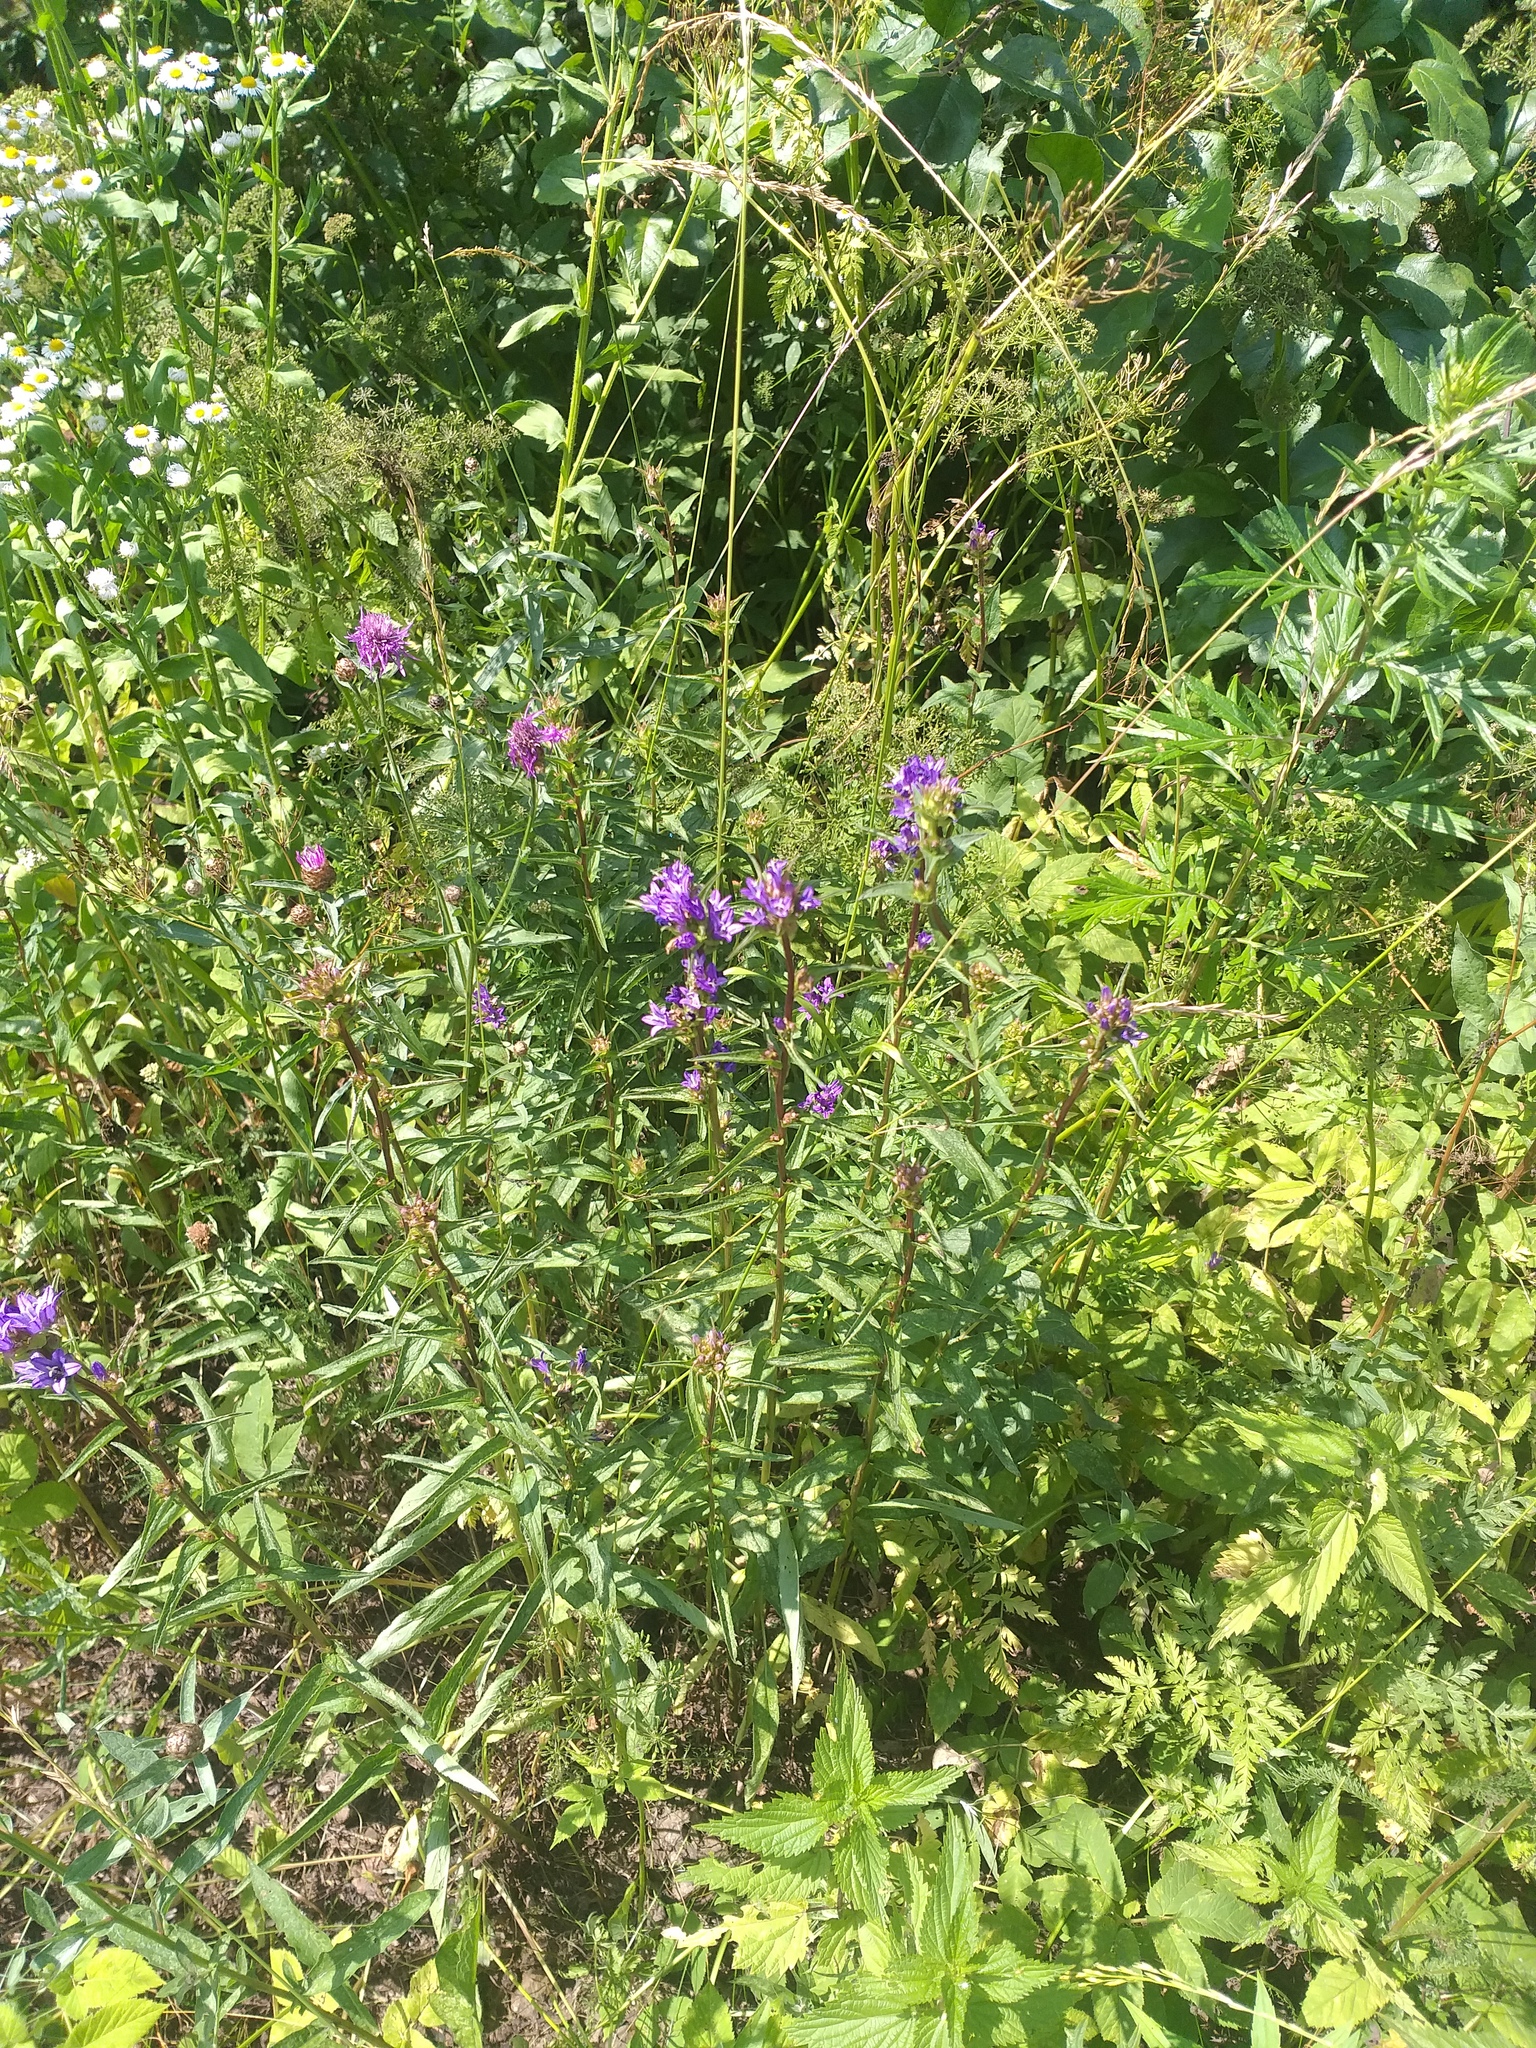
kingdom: Plantae
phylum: Tracheophyta
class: Magnoliopsida
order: Asterales
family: Campanulaceae
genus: Campanula
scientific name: Campanula glomerata
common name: Clustered bellflower
